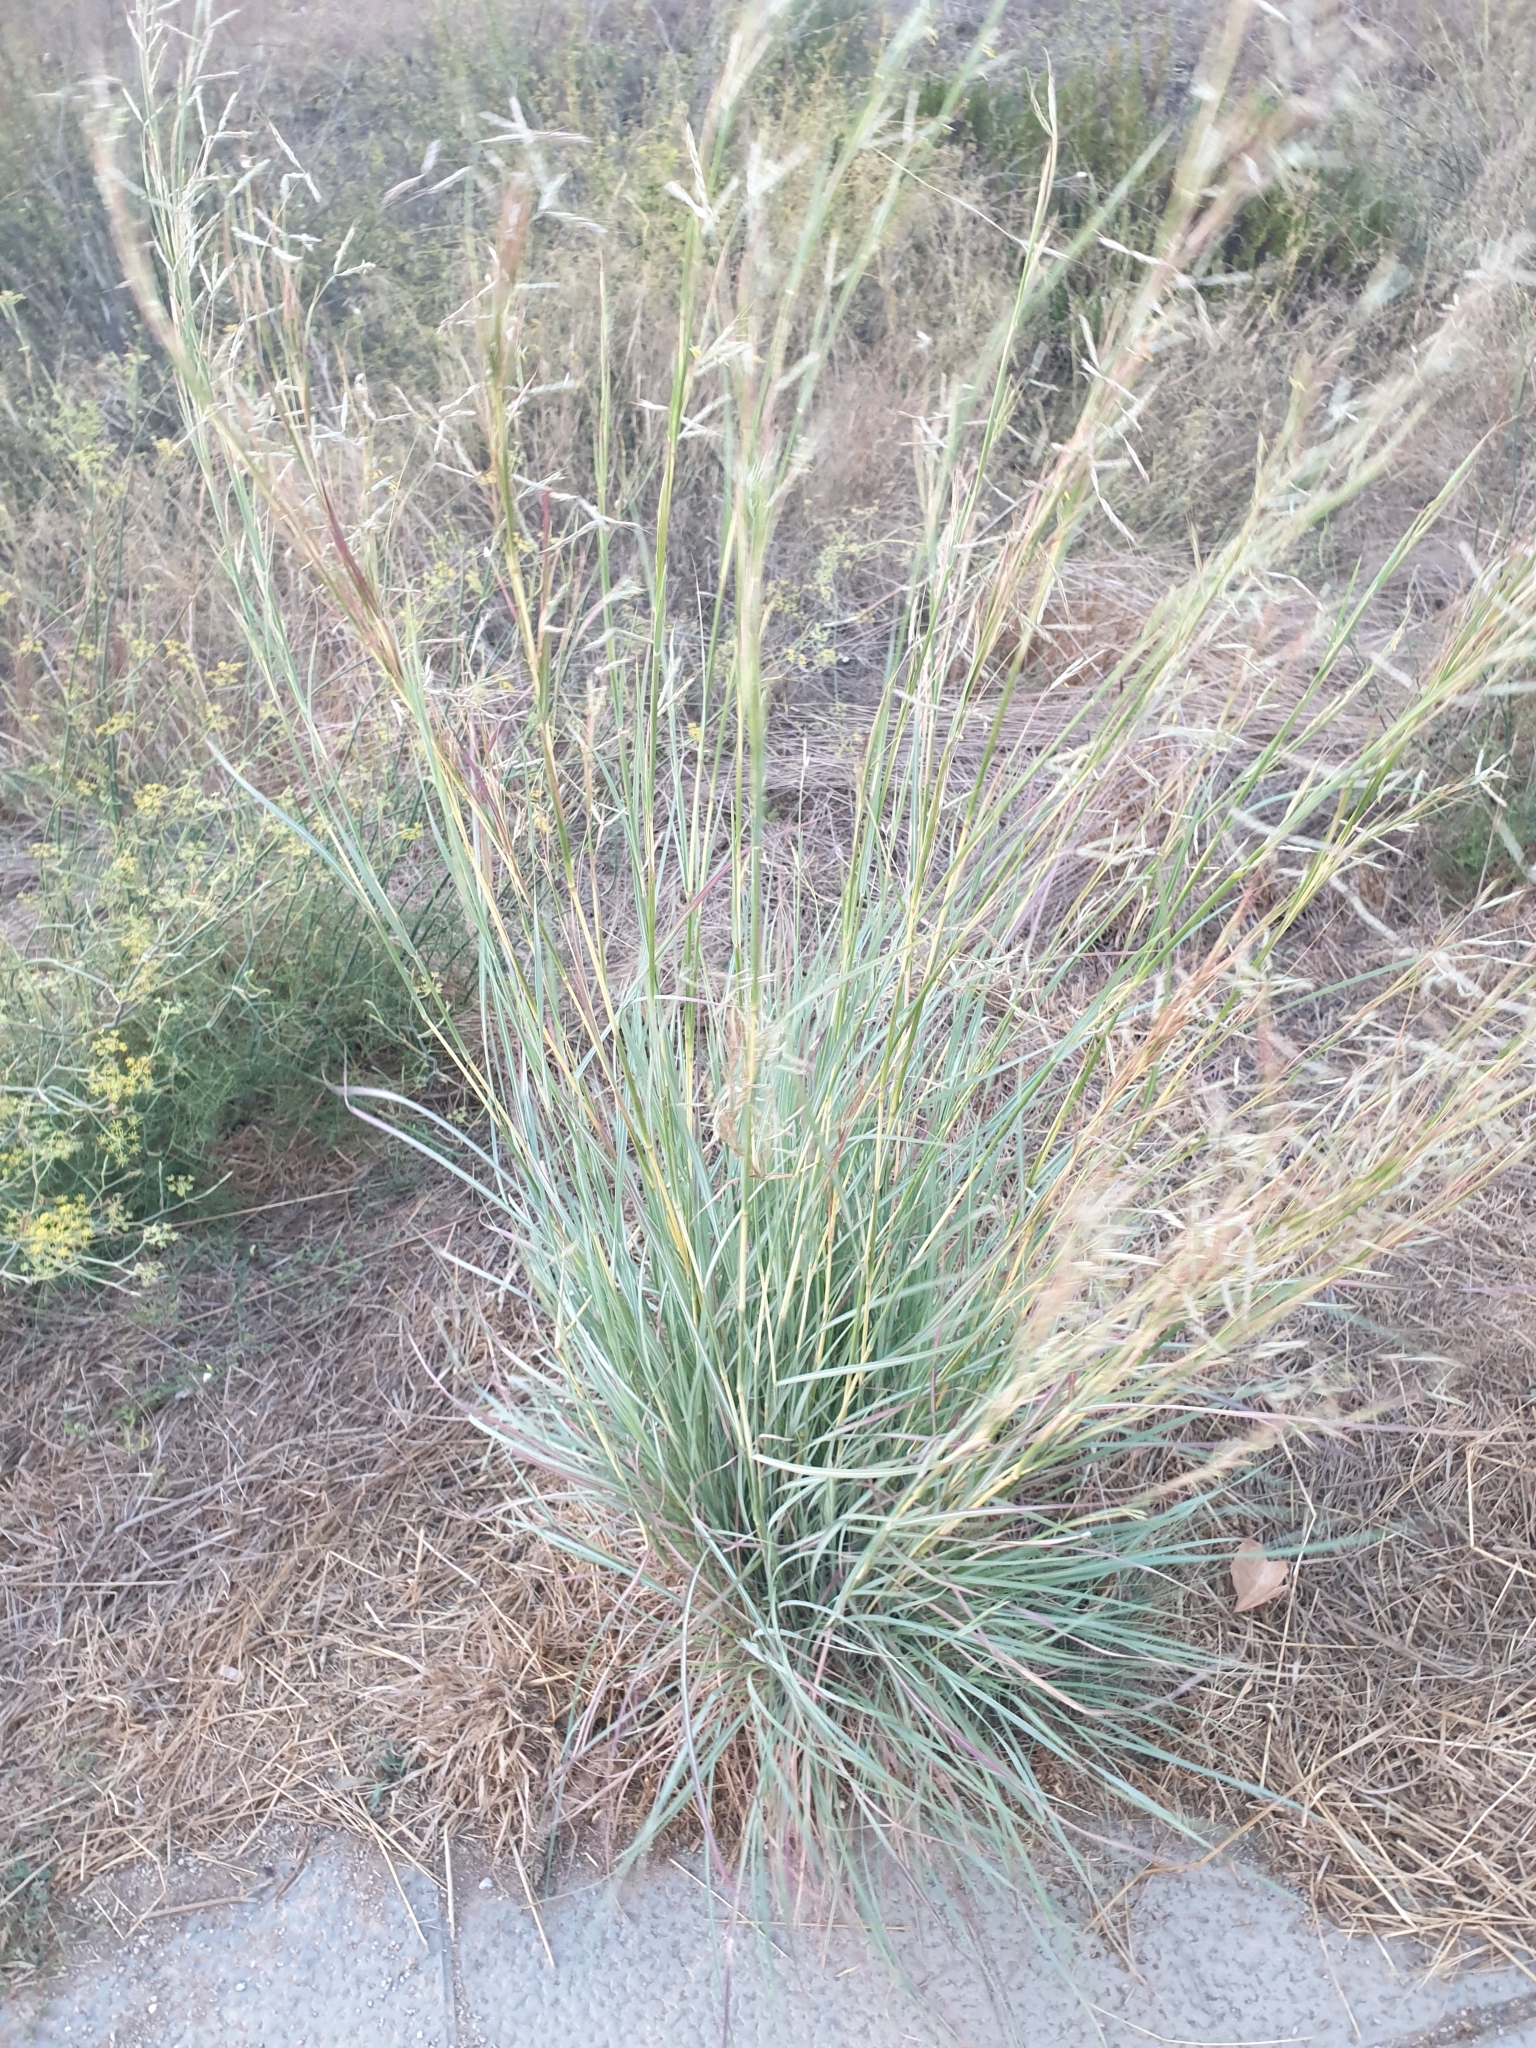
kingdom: Plantae
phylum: Tracheophyta
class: Liliopsida
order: Poales
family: Poaceae
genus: Hyparrhenia
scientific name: Hyparrhenia hirta
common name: Thatching grass
